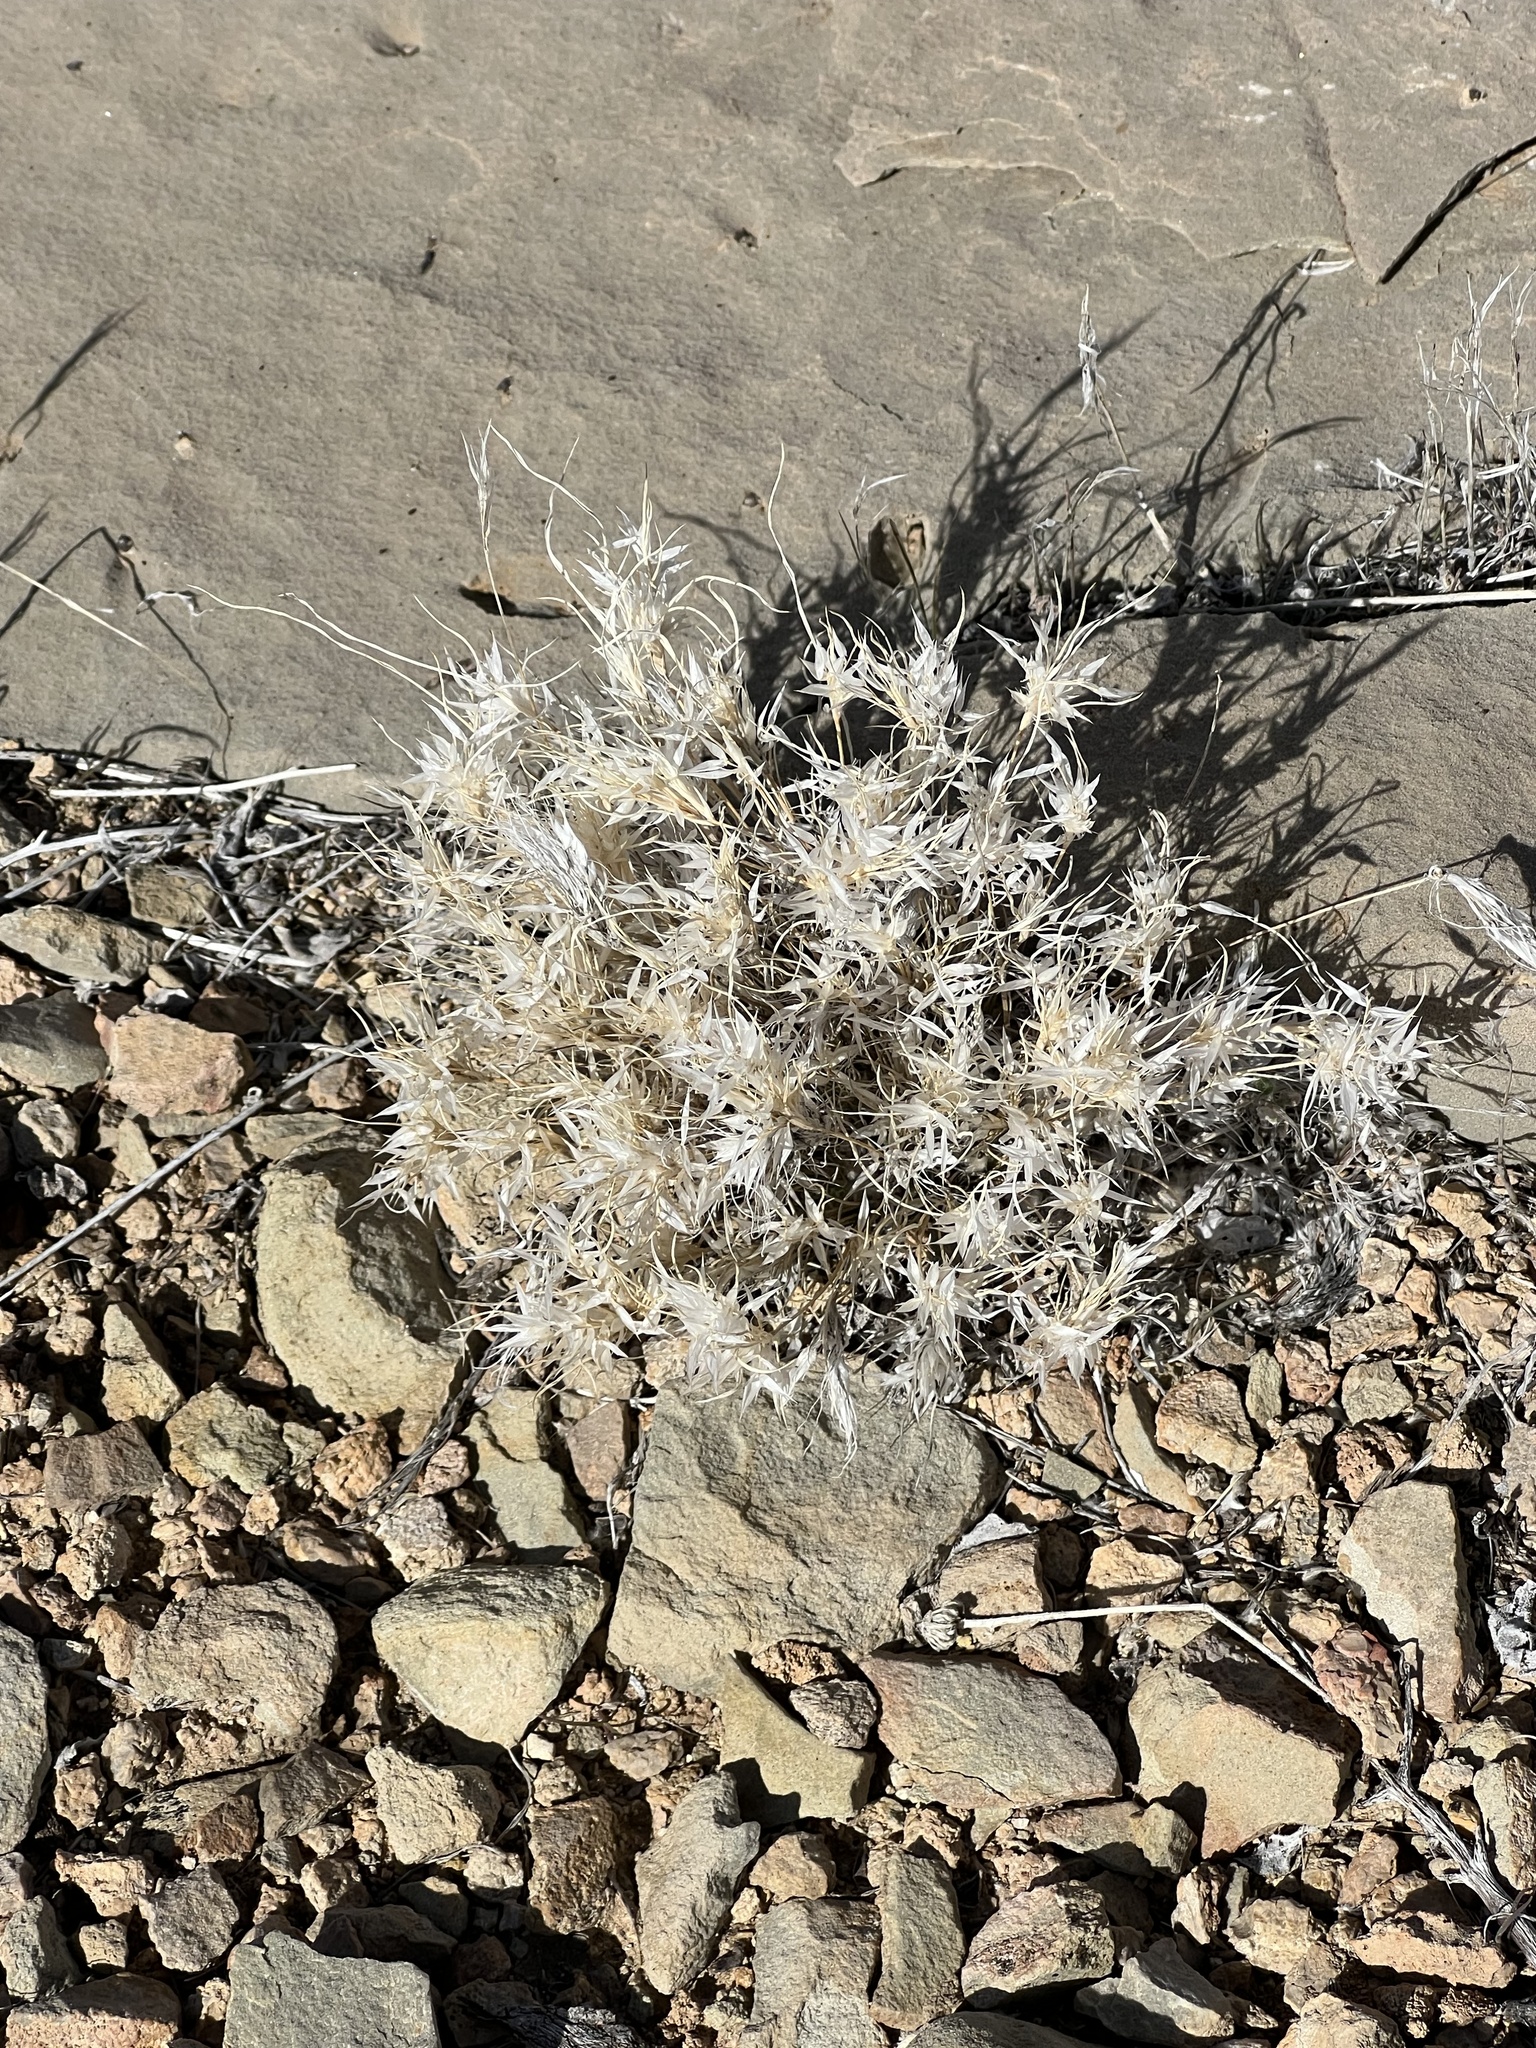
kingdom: Plantae
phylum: Tracheophyta
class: Liliopsida
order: Poales
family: Poaceae
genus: Dasyochloa
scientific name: Dasyochloa pulchella
